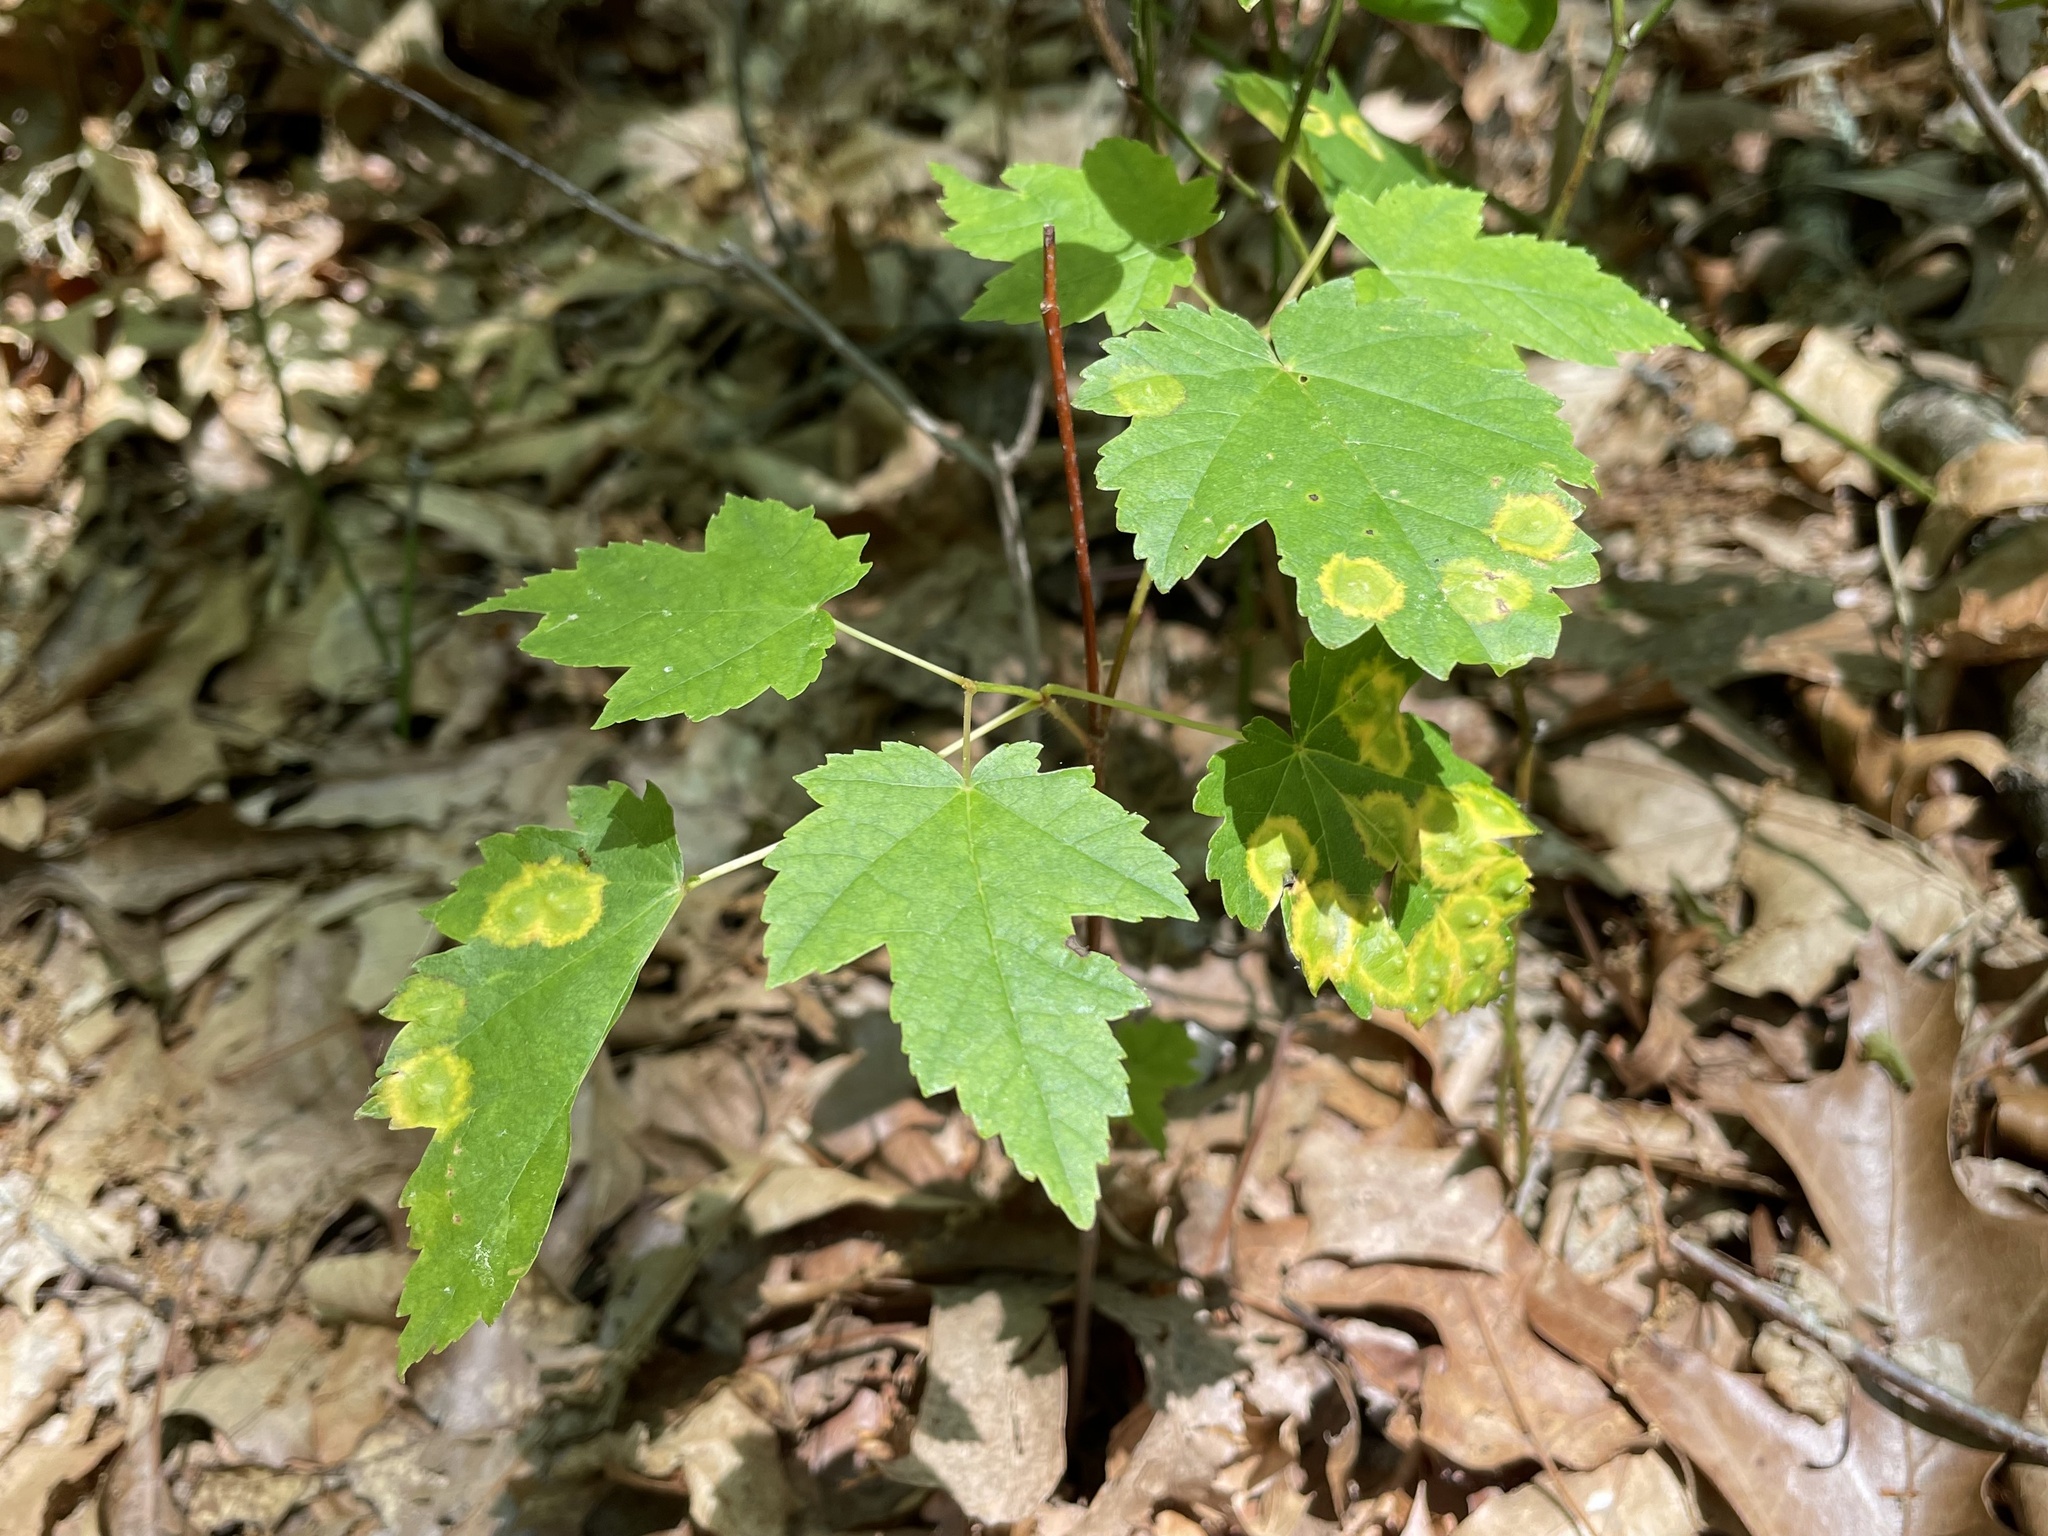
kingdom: Animalia
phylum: Arthropoda
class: Insecta
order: Diptera
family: Cecidomyiidae
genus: Acericecis
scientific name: Acericecis ocellaris
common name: Ocellate gall midge
